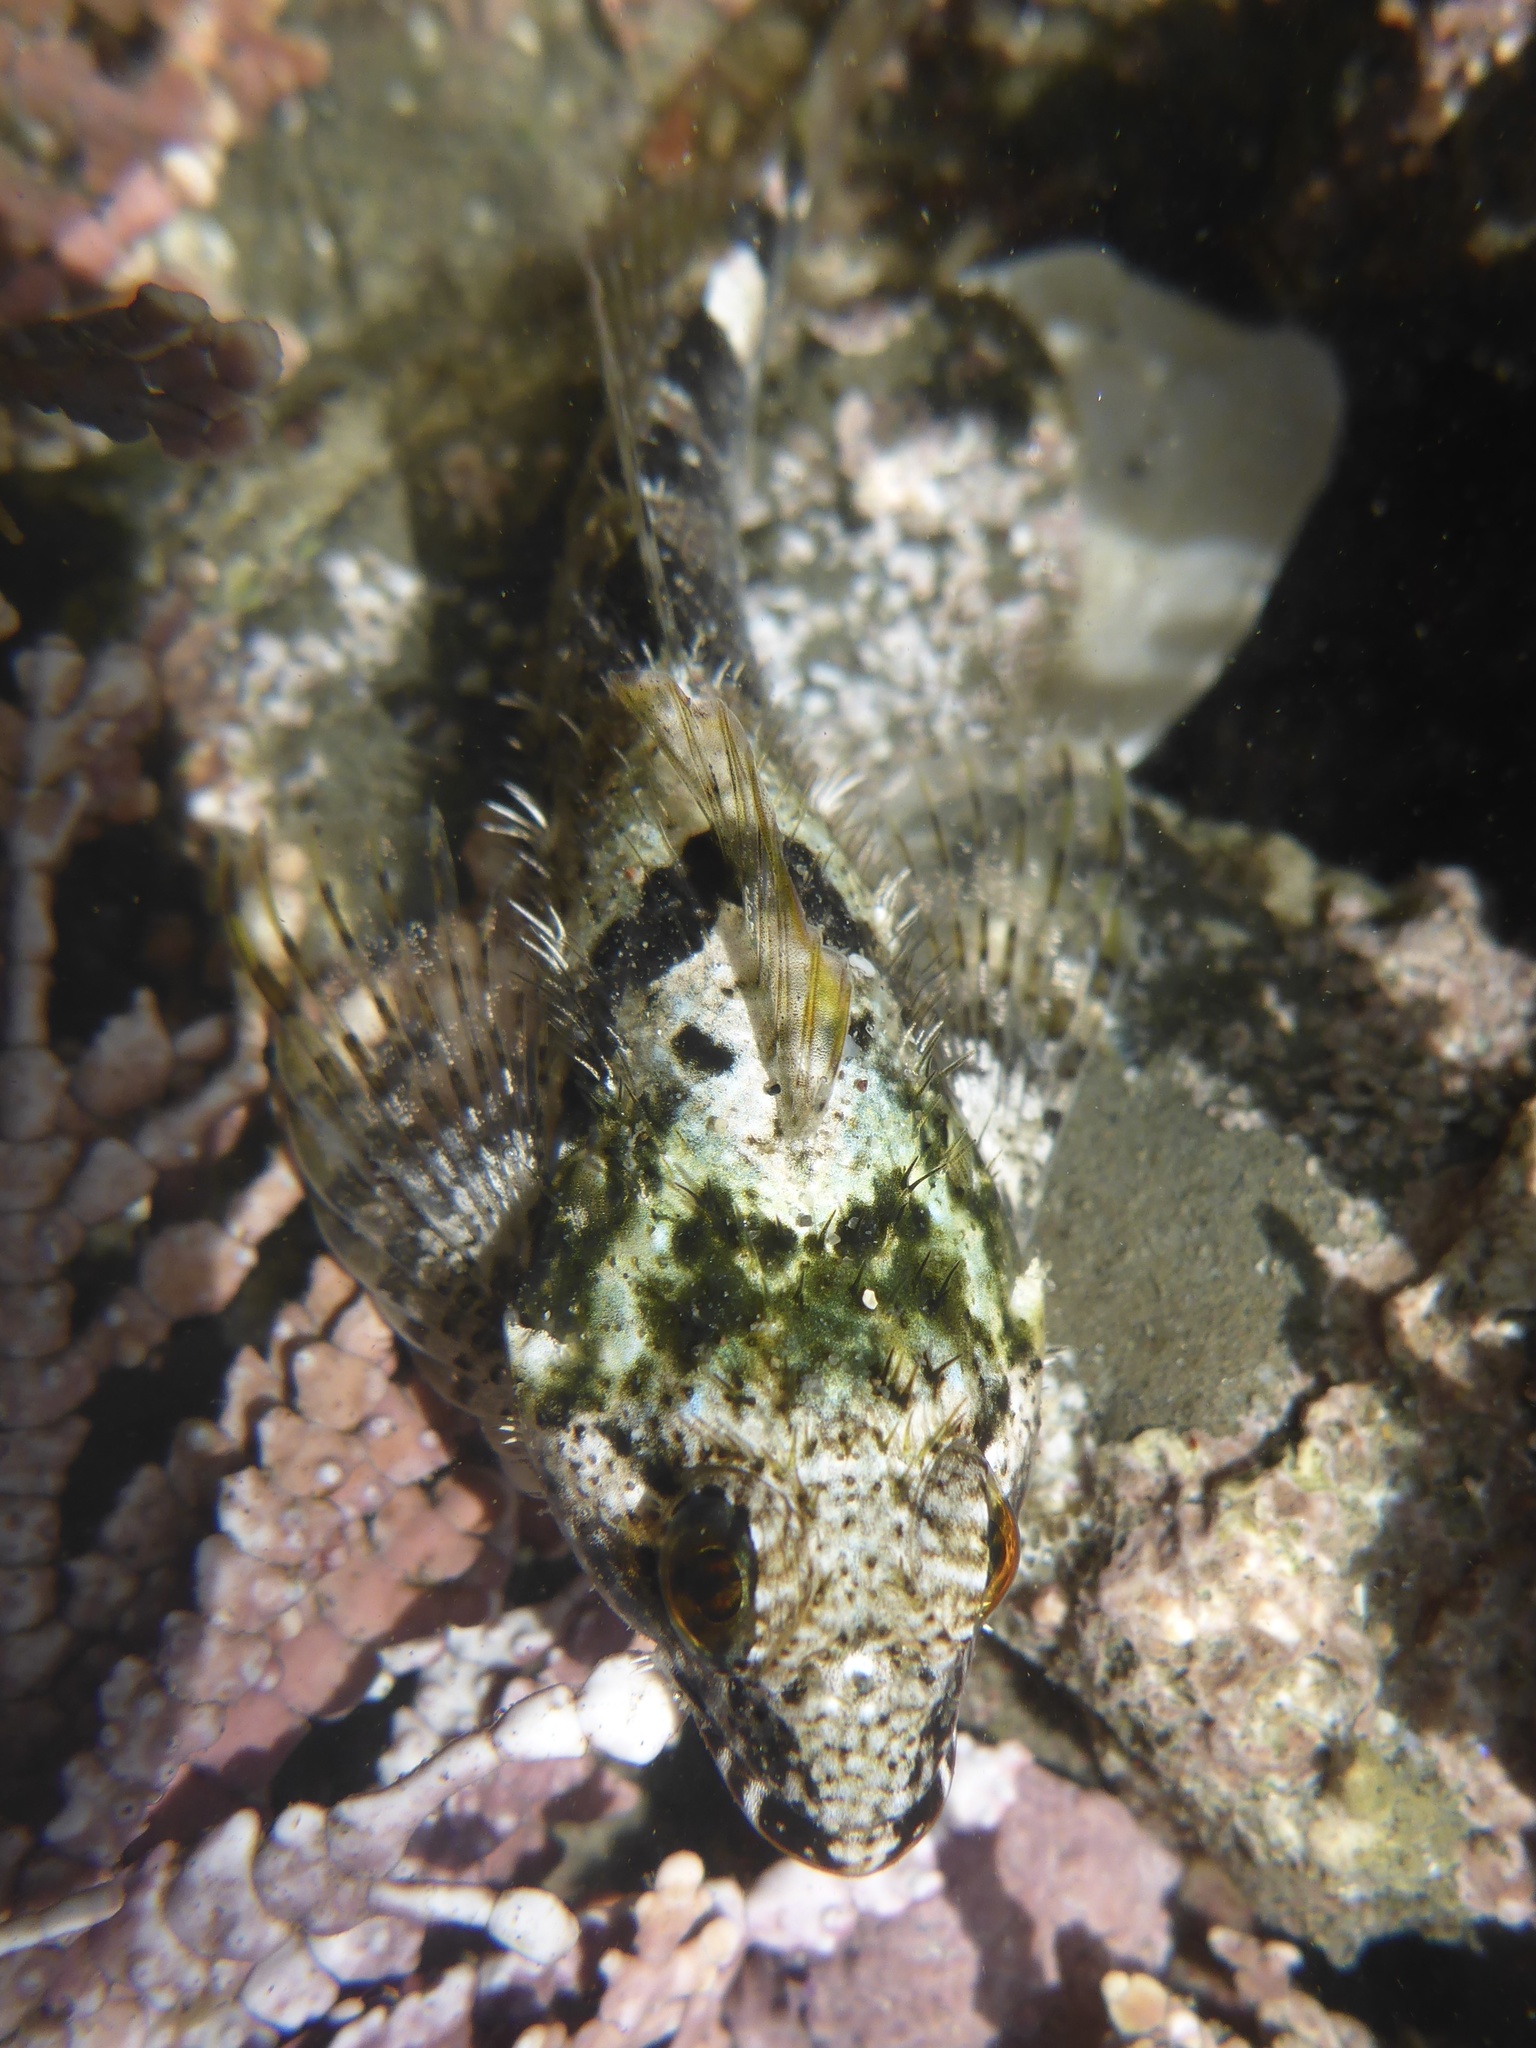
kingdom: Animalia
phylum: Chordata
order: Scorpaeniformes
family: Cottidae
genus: Clinocottus
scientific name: Clinocottus analis
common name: Woolly sculpin
